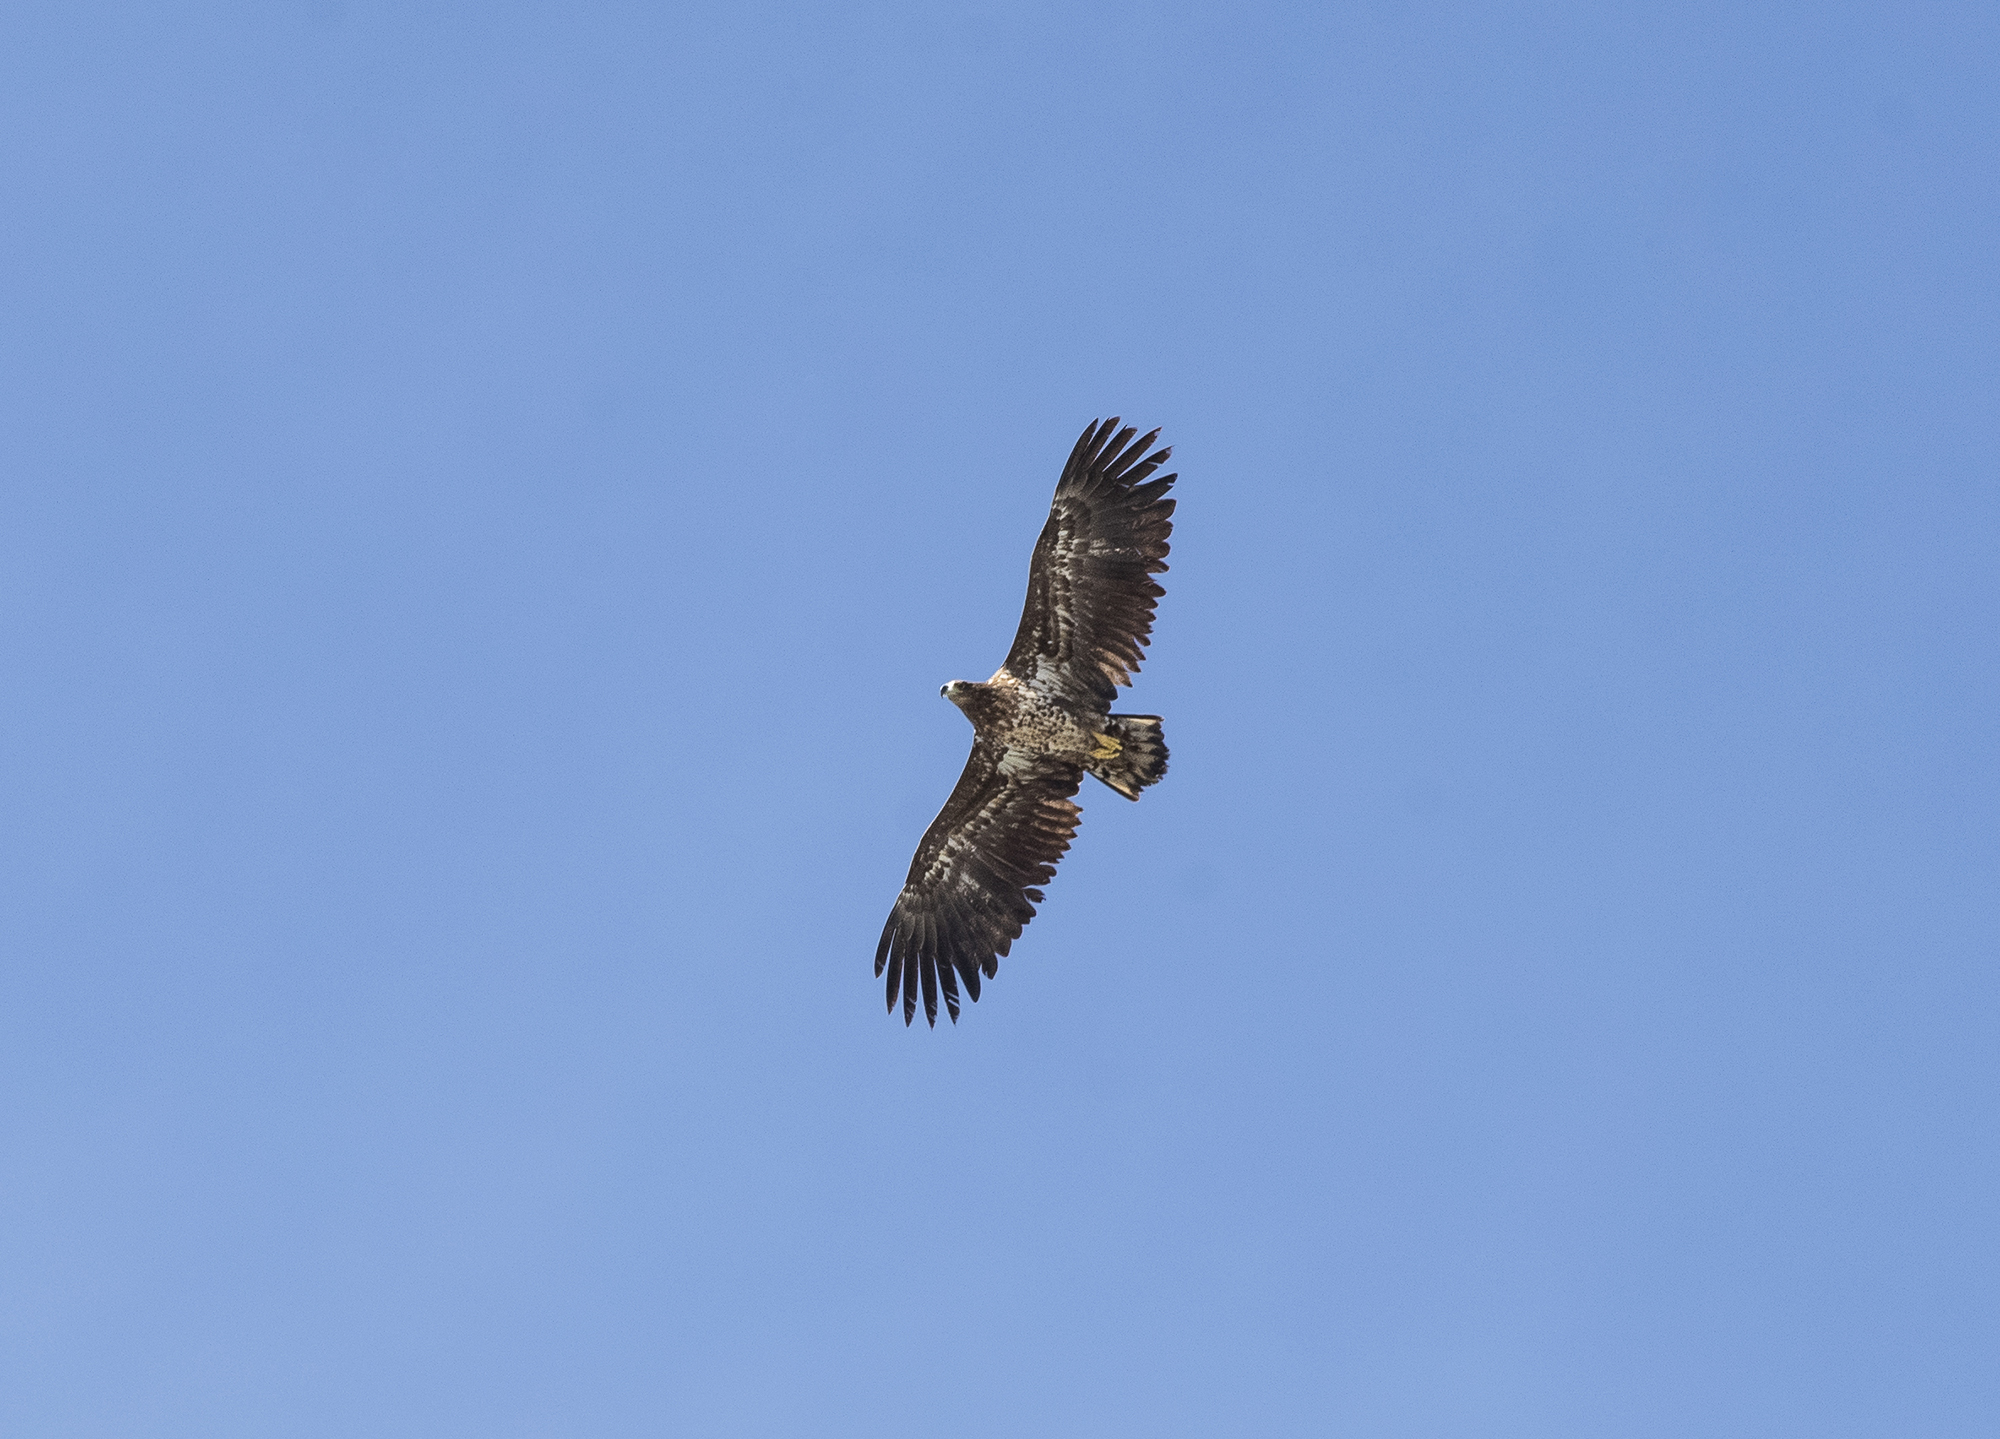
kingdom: Animalia
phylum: Chordata
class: Aves
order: Accipitriformes
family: Accipitridae
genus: Haliaeetus
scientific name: Haliaeetus albicilla
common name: White-tailed eagle
